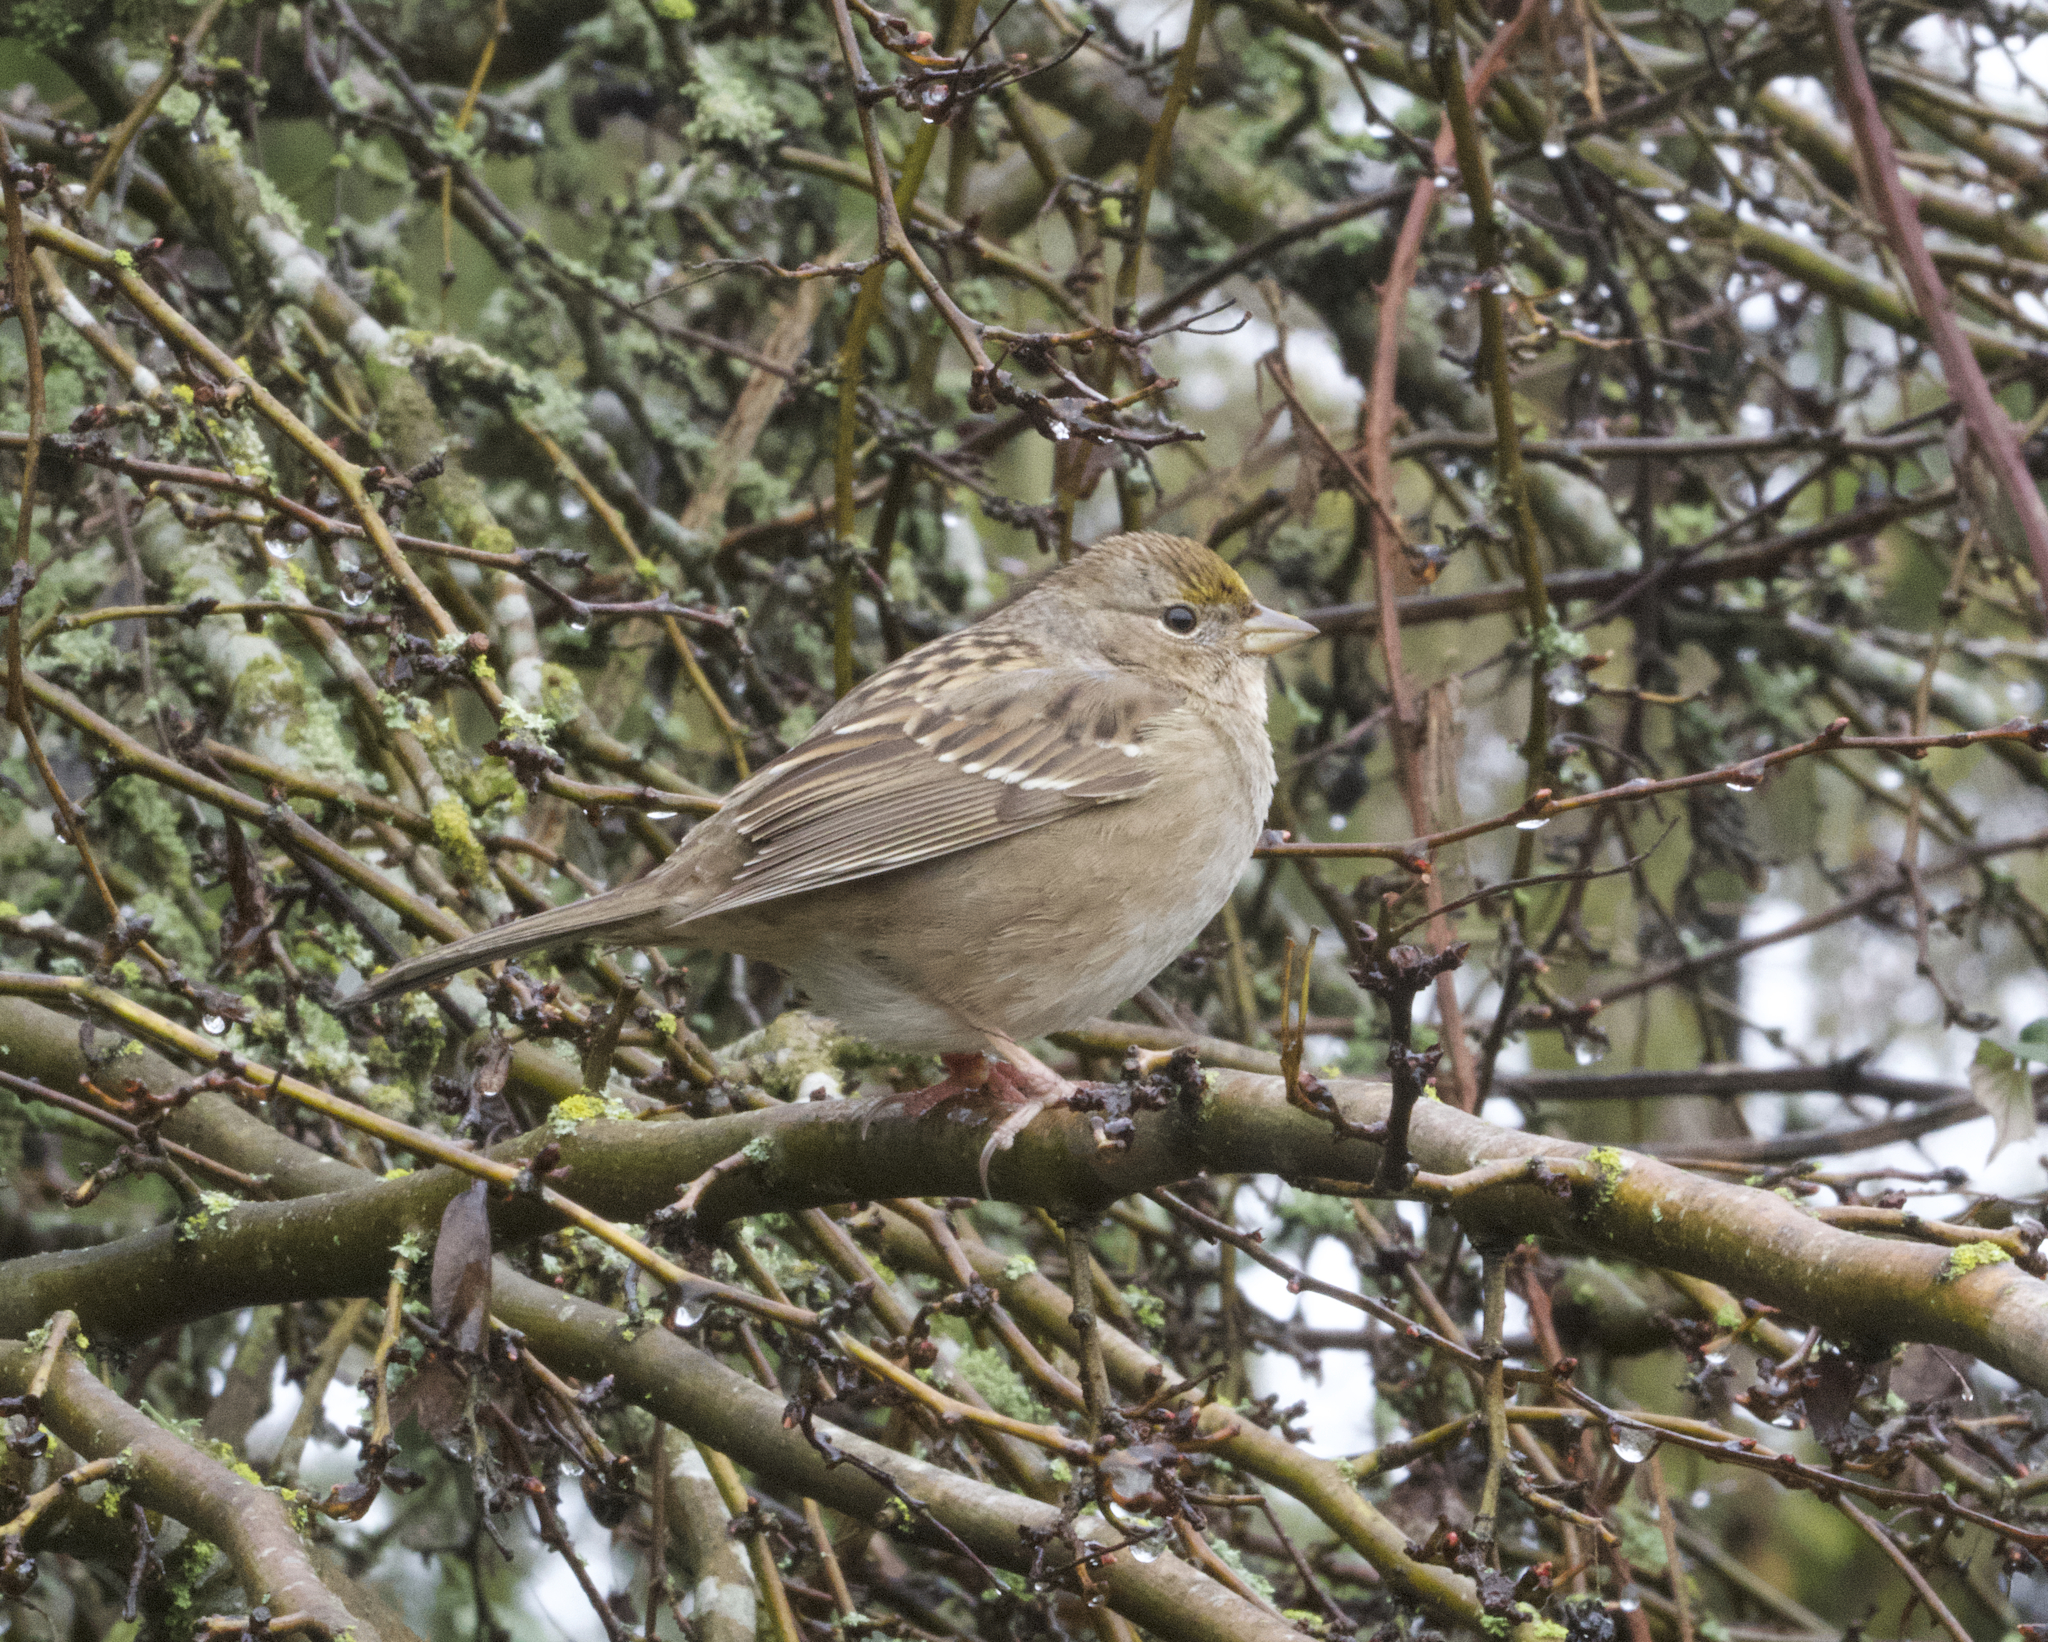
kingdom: Animalia
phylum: Chordata
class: Aves
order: Passeriformes
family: Passerellidae
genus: Zonotrichia
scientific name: Zonotrichia atricapilla
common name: Golden-crowned sparrow
